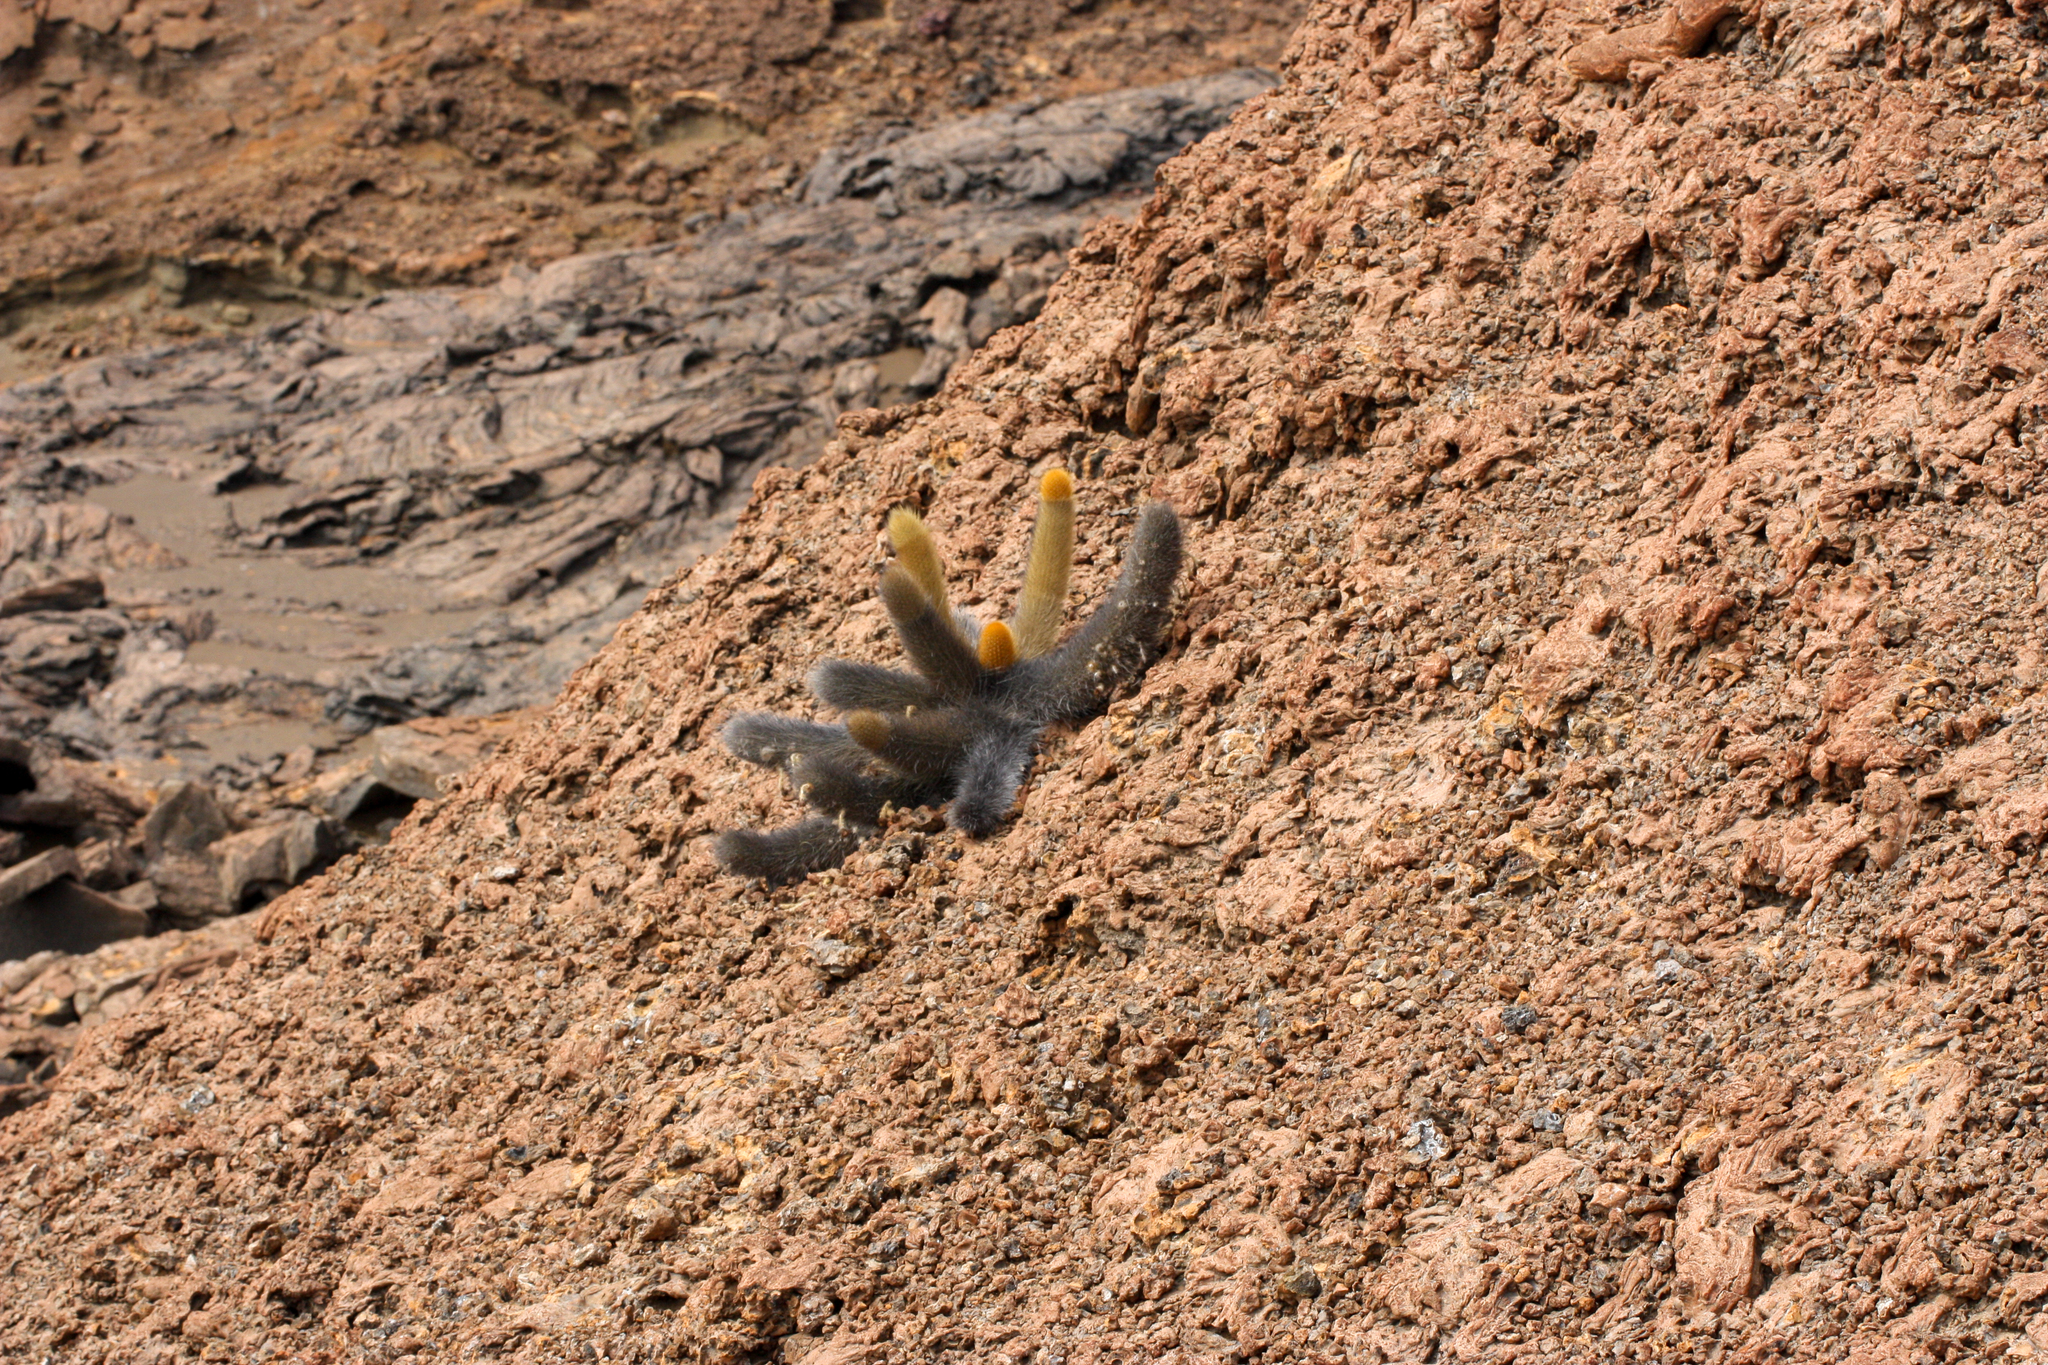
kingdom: Plantae
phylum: Tracheophyta
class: Magnoliopsida
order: Caryophyllales
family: Cactaceae
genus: Brachycereus
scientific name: Brachycereus nesioticus
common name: Lava cactus
